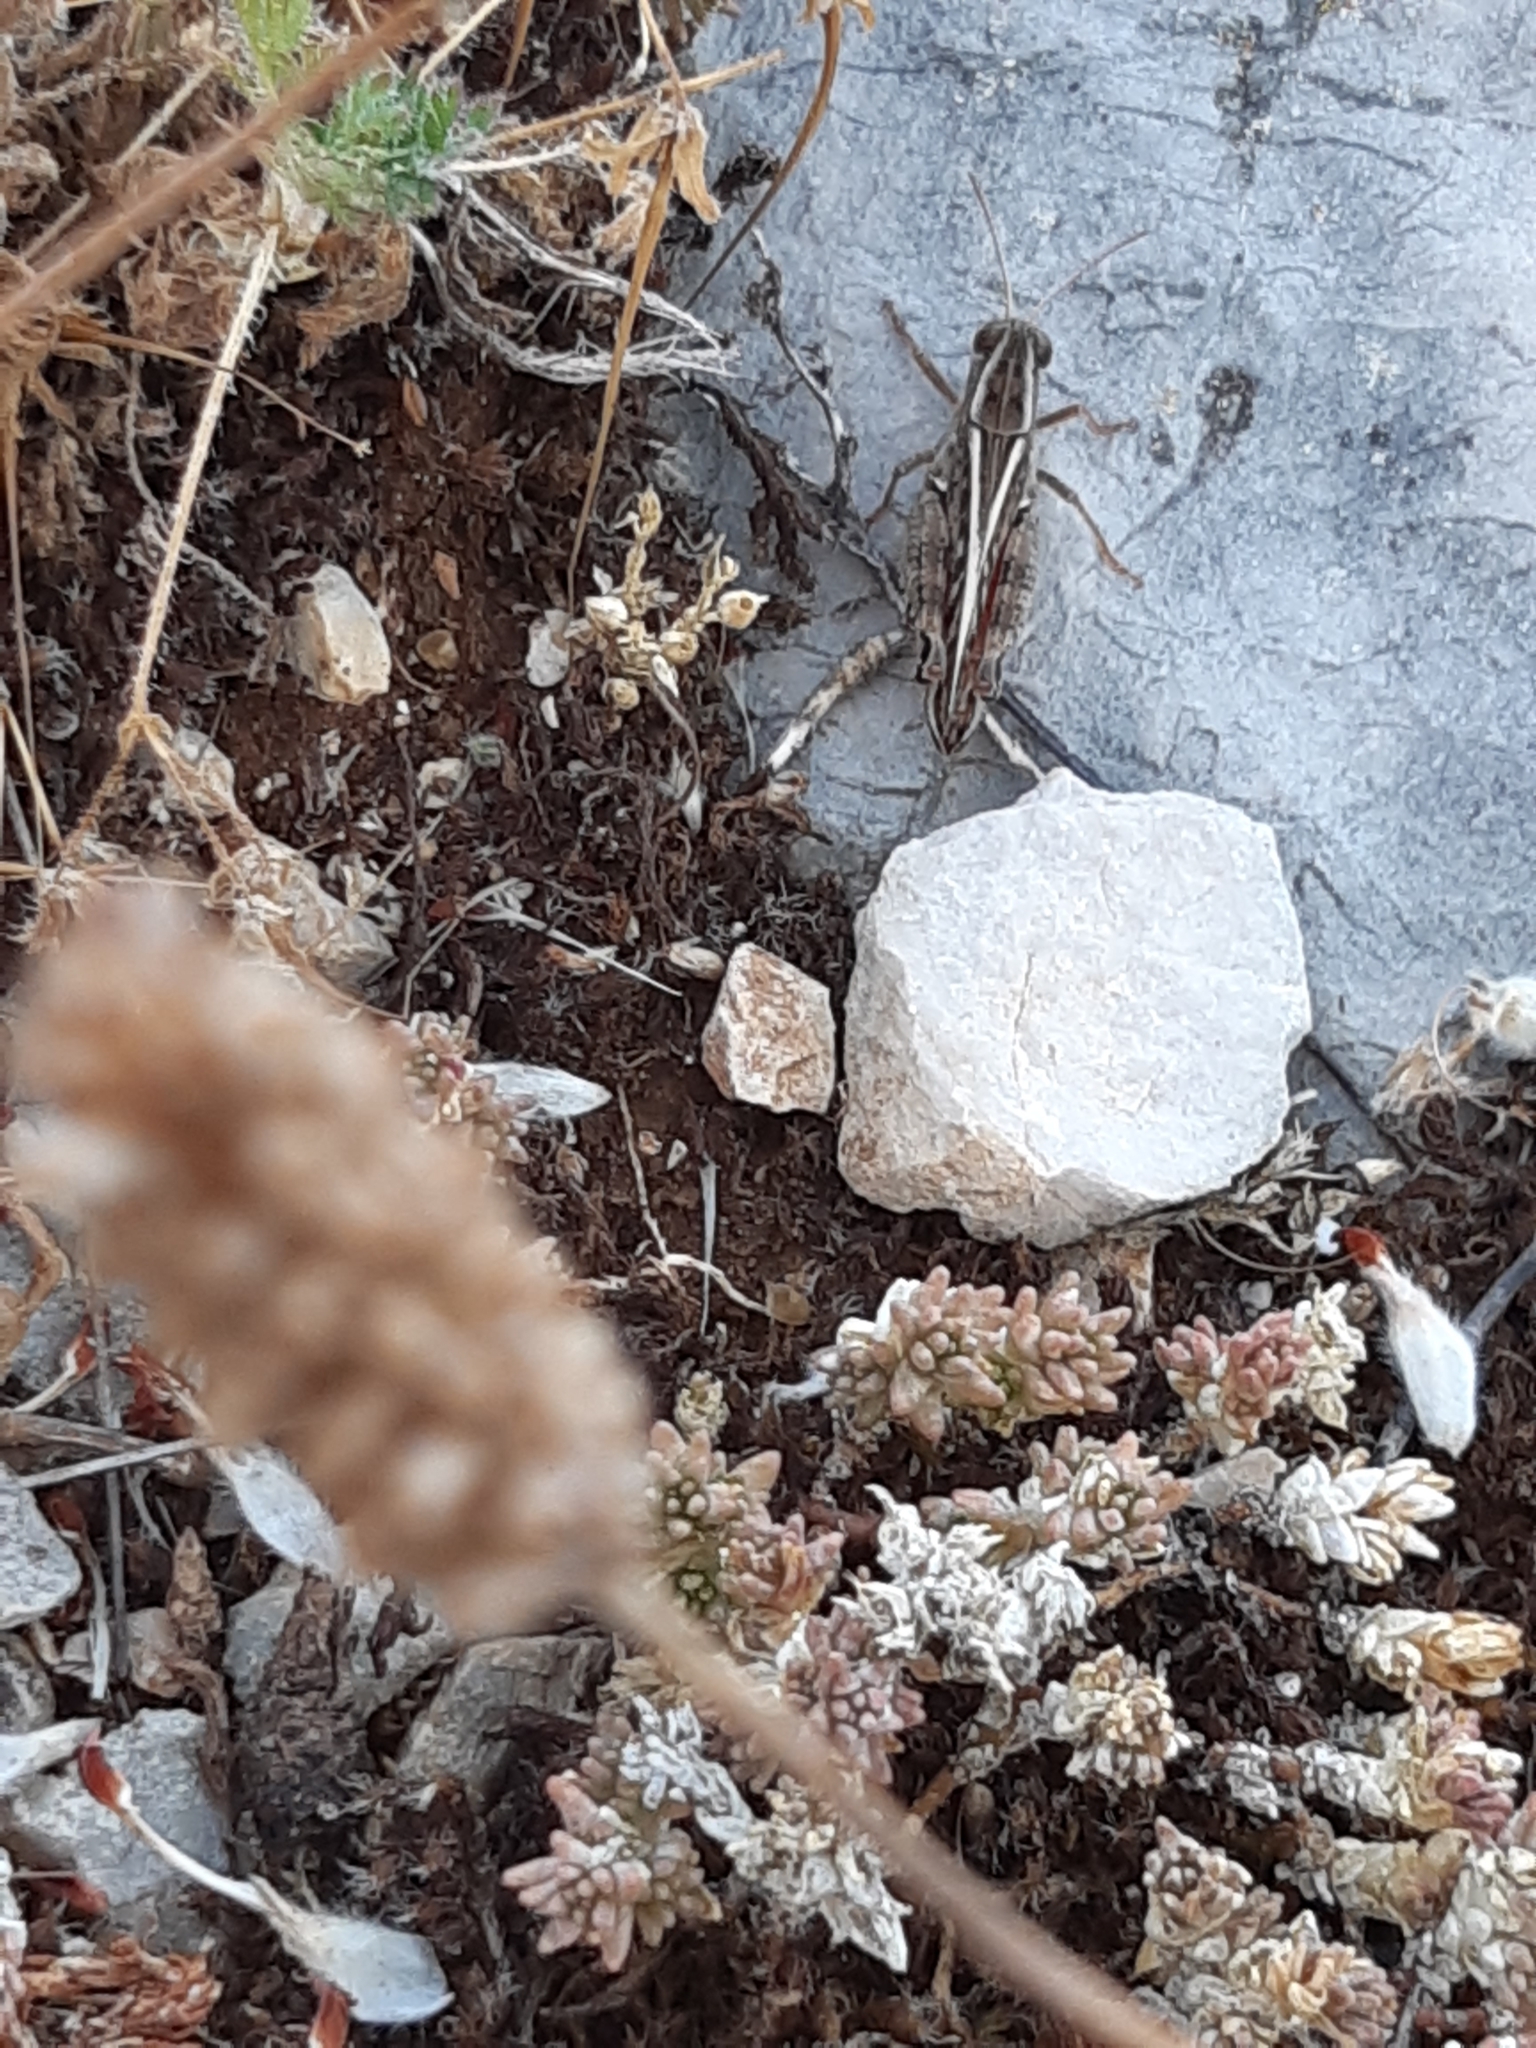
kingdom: Animalia
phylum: Arthropoda
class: Insecta
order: Orthoptera
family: Acrididae
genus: Calliptamus
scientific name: Calliptamus italicus
